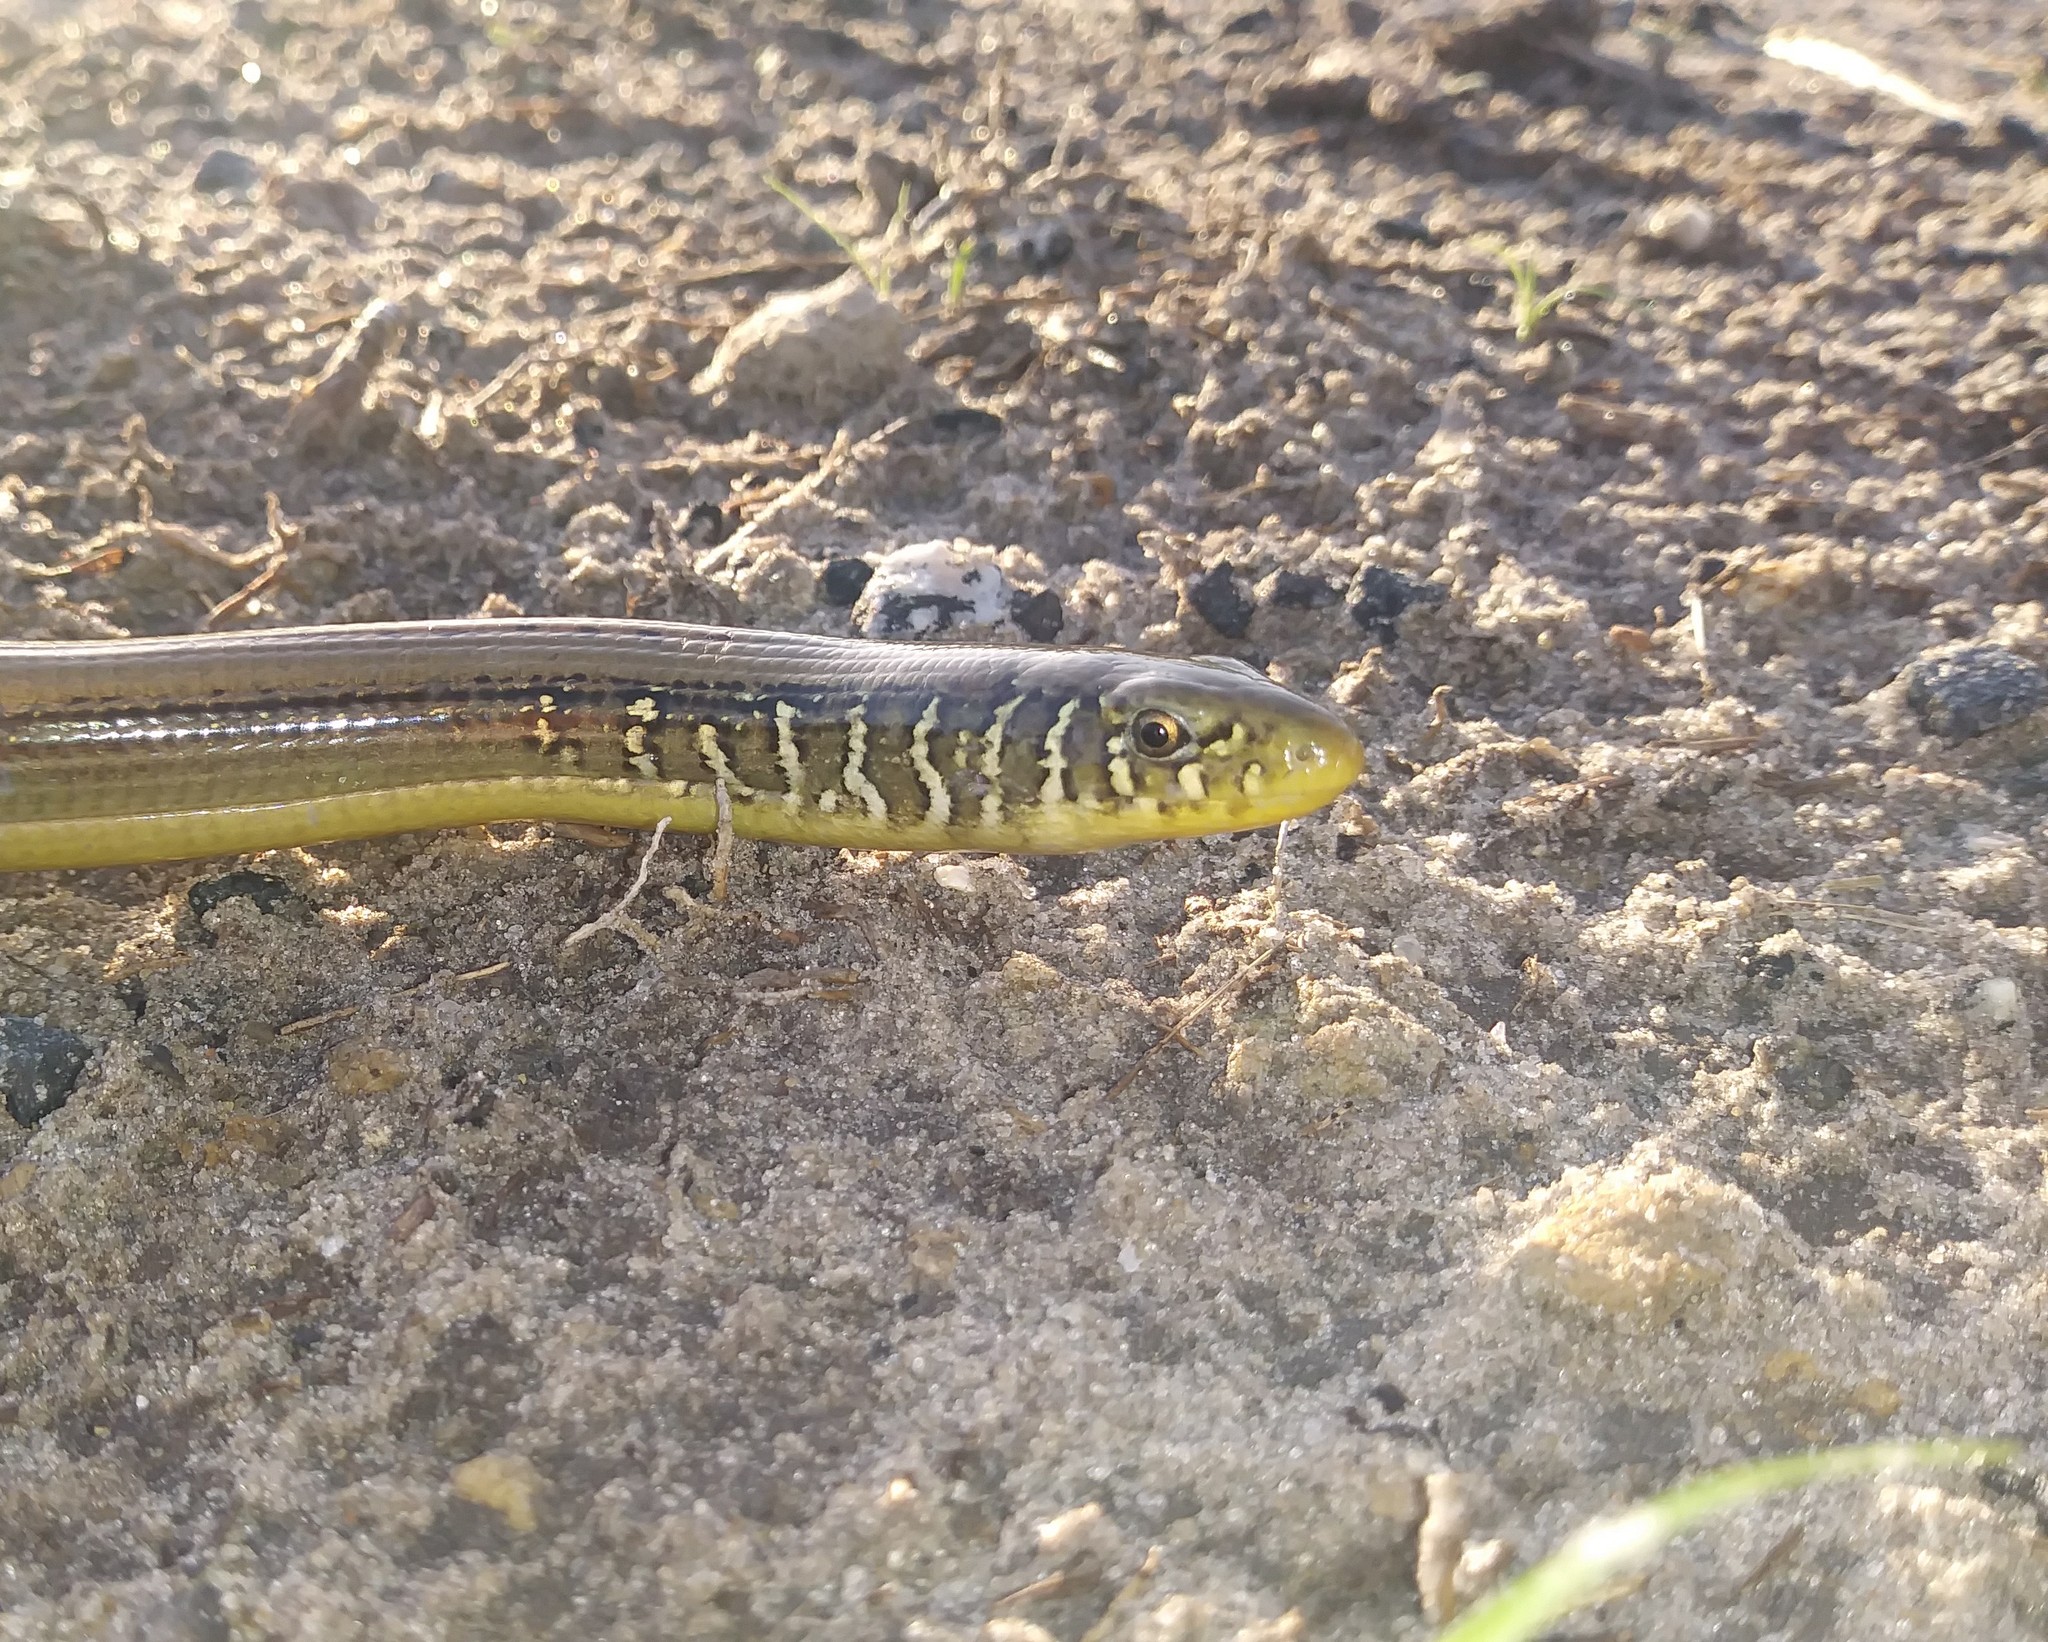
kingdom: Animalia
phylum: Chordata
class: Squamata
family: Anguidae
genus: Ophisaurus
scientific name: Ophisaurus ventralis
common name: Eastern glass lizard
